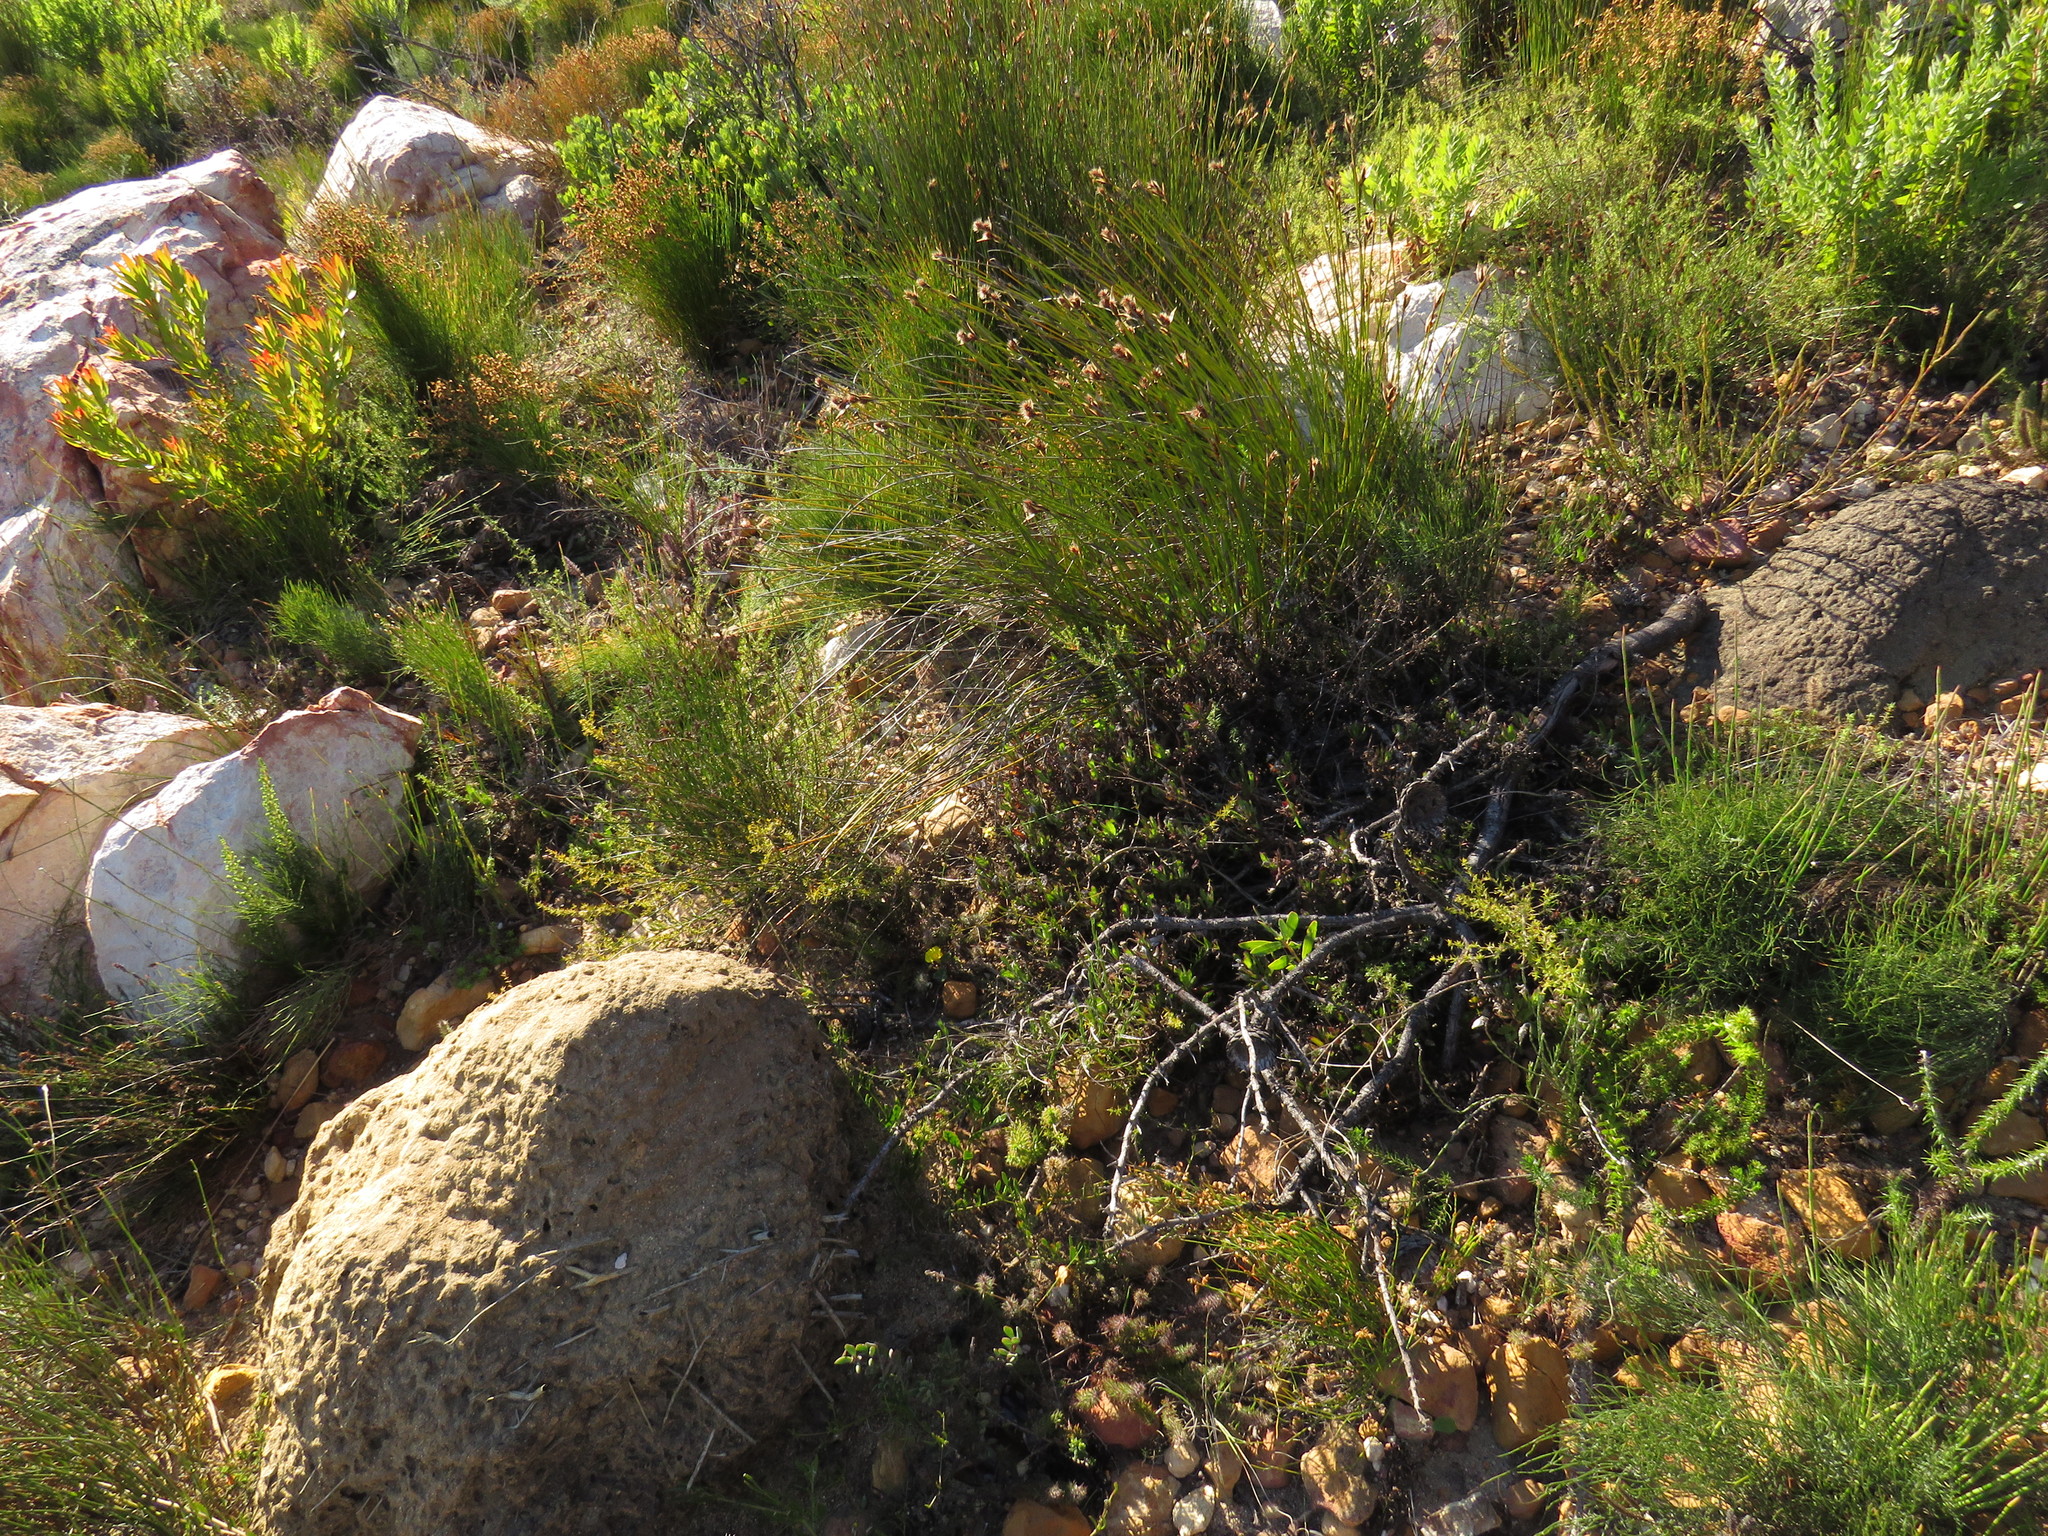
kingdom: Plantae
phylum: Tracheophyta
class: Magnoliopsida
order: Proteales
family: Proteaceae
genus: Leucadendron
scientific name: Leucadendron sessile
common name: Western sunbush
